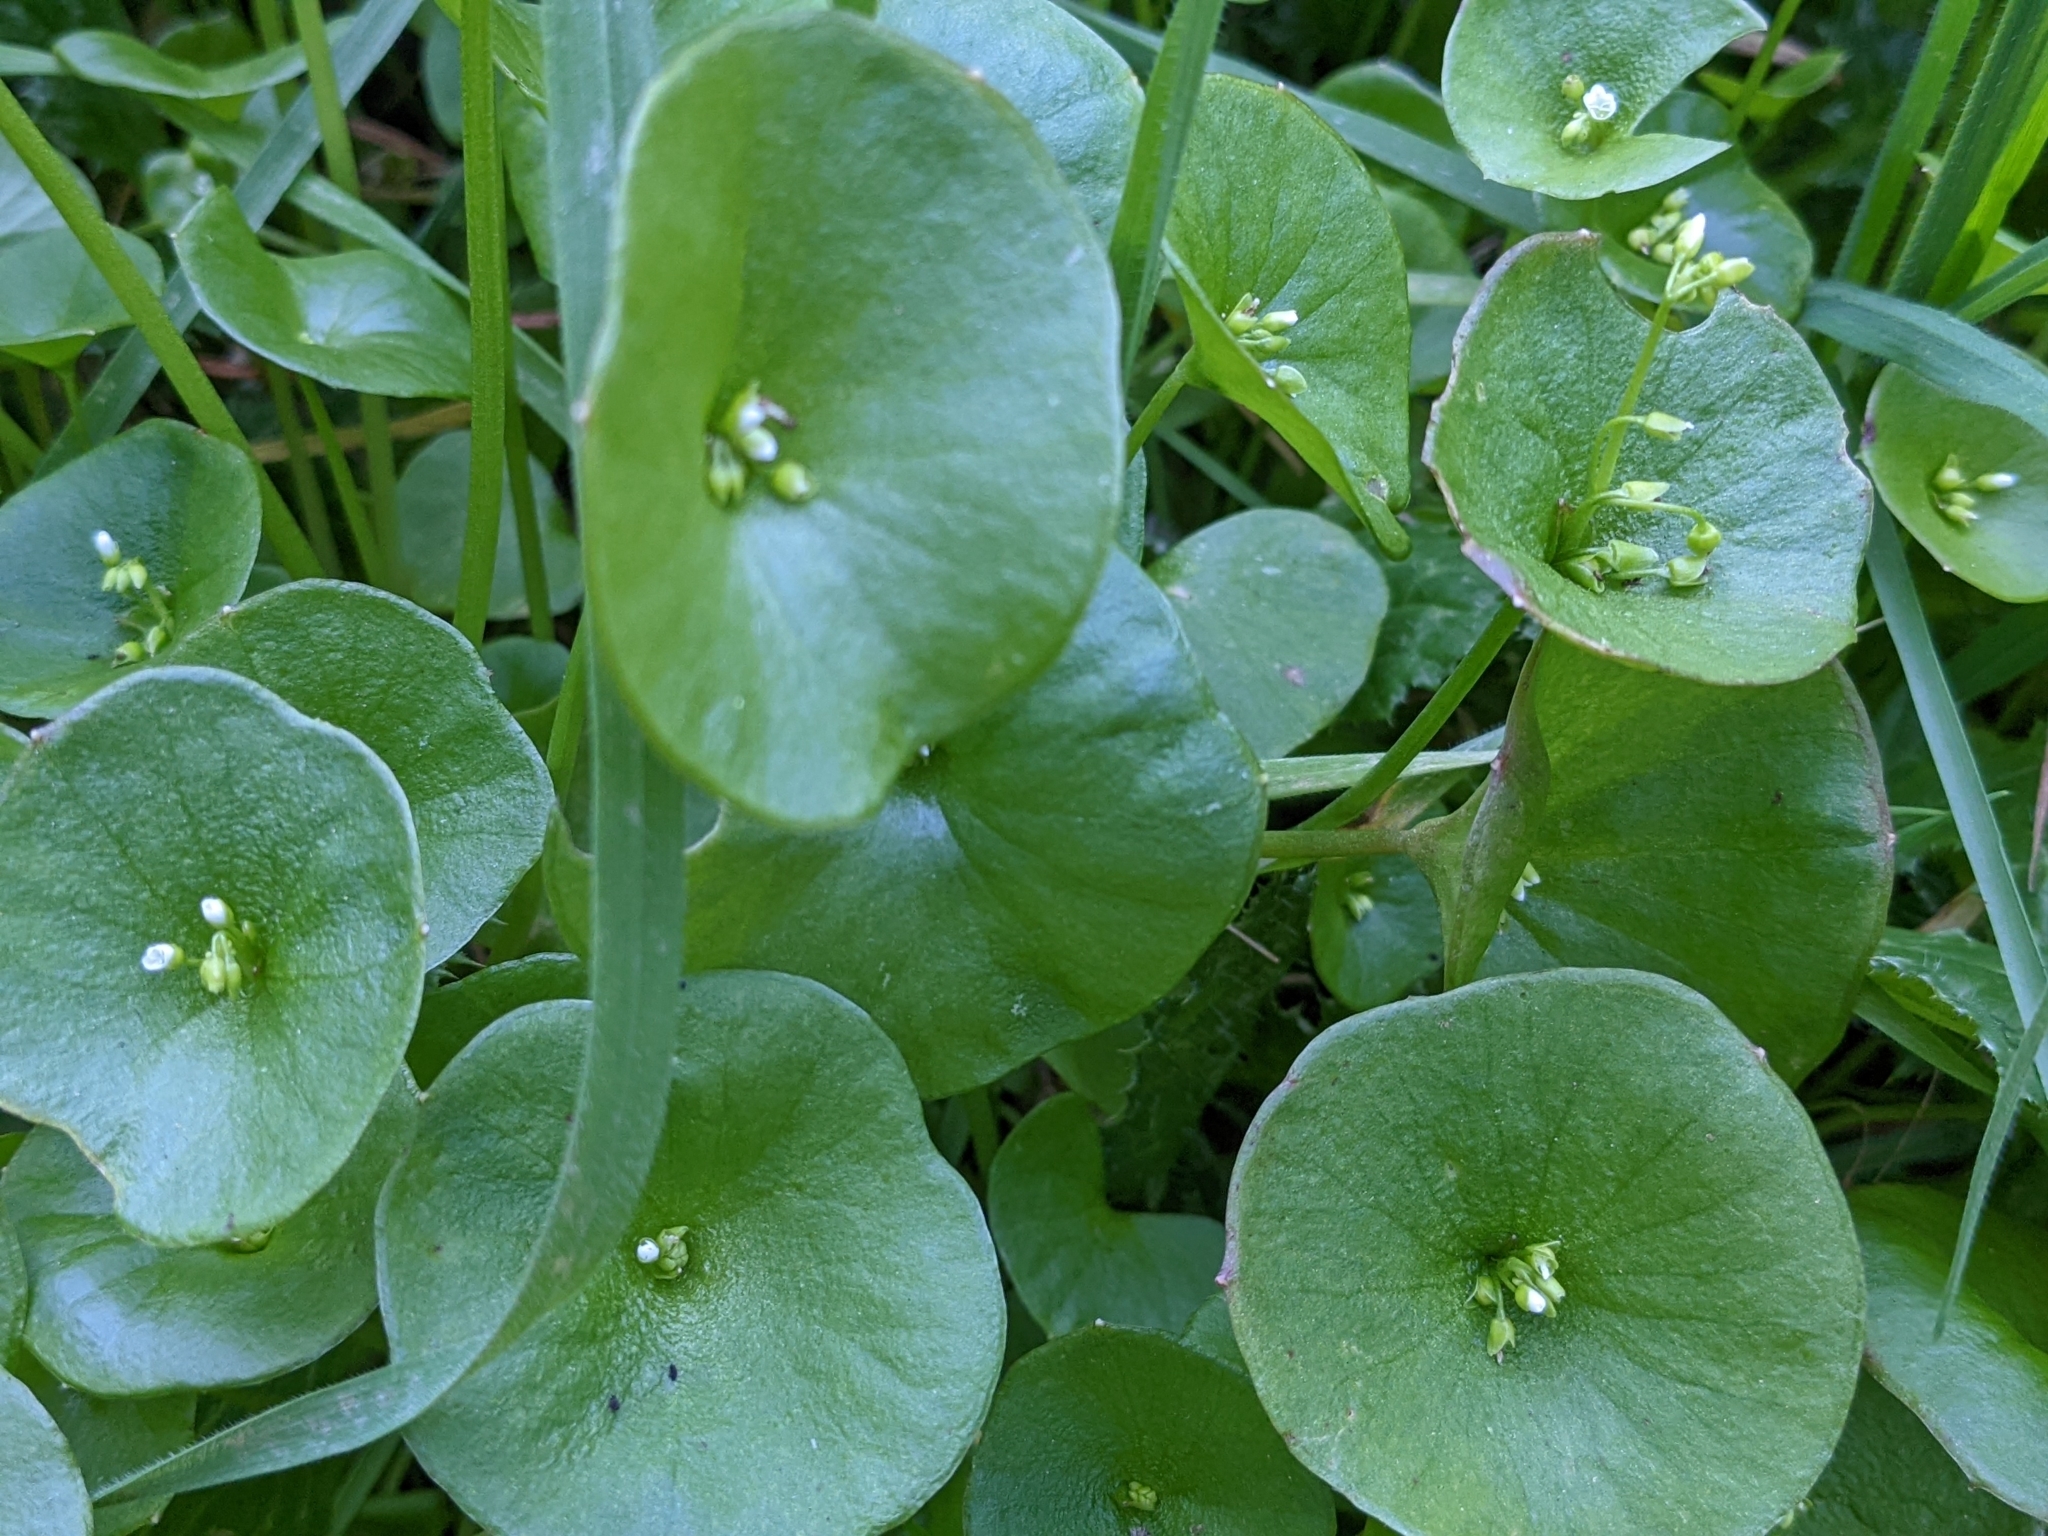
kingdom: Plantae
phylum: Tracheophyta
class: Magnoliopsida
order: Caryophyllales
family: Montiaceae
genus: Claytonia
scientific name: Claytonia perfoliata
